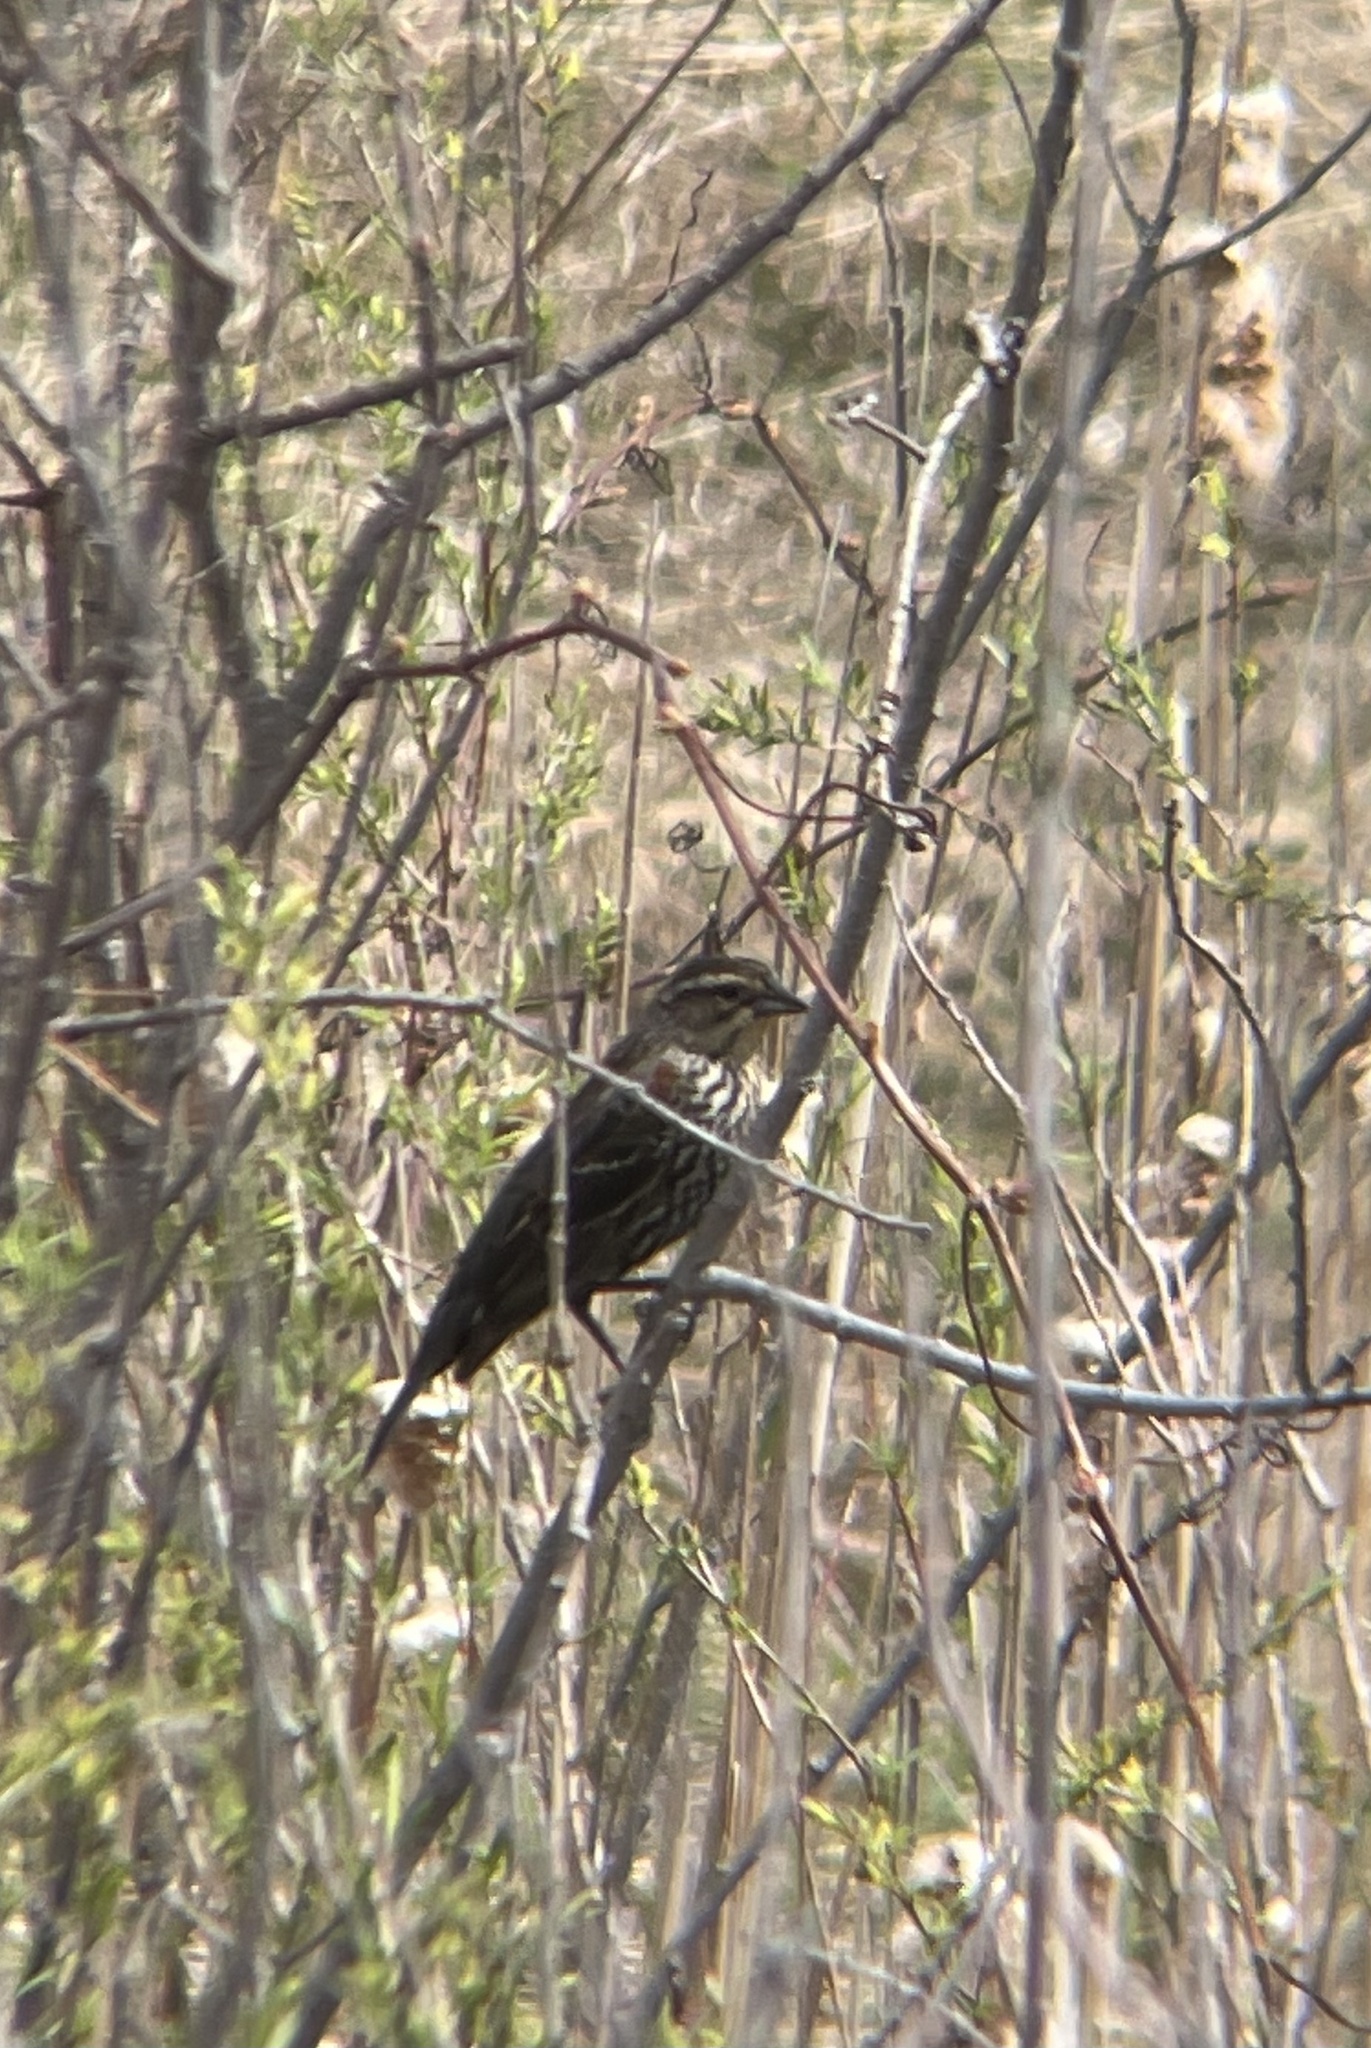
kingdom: Animalia
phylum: Chordata
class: Aves
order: Passeriformes
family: Icteridae
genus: Agelaius
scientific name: Agelaius phoeniceus
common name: Red-winged blackbird
